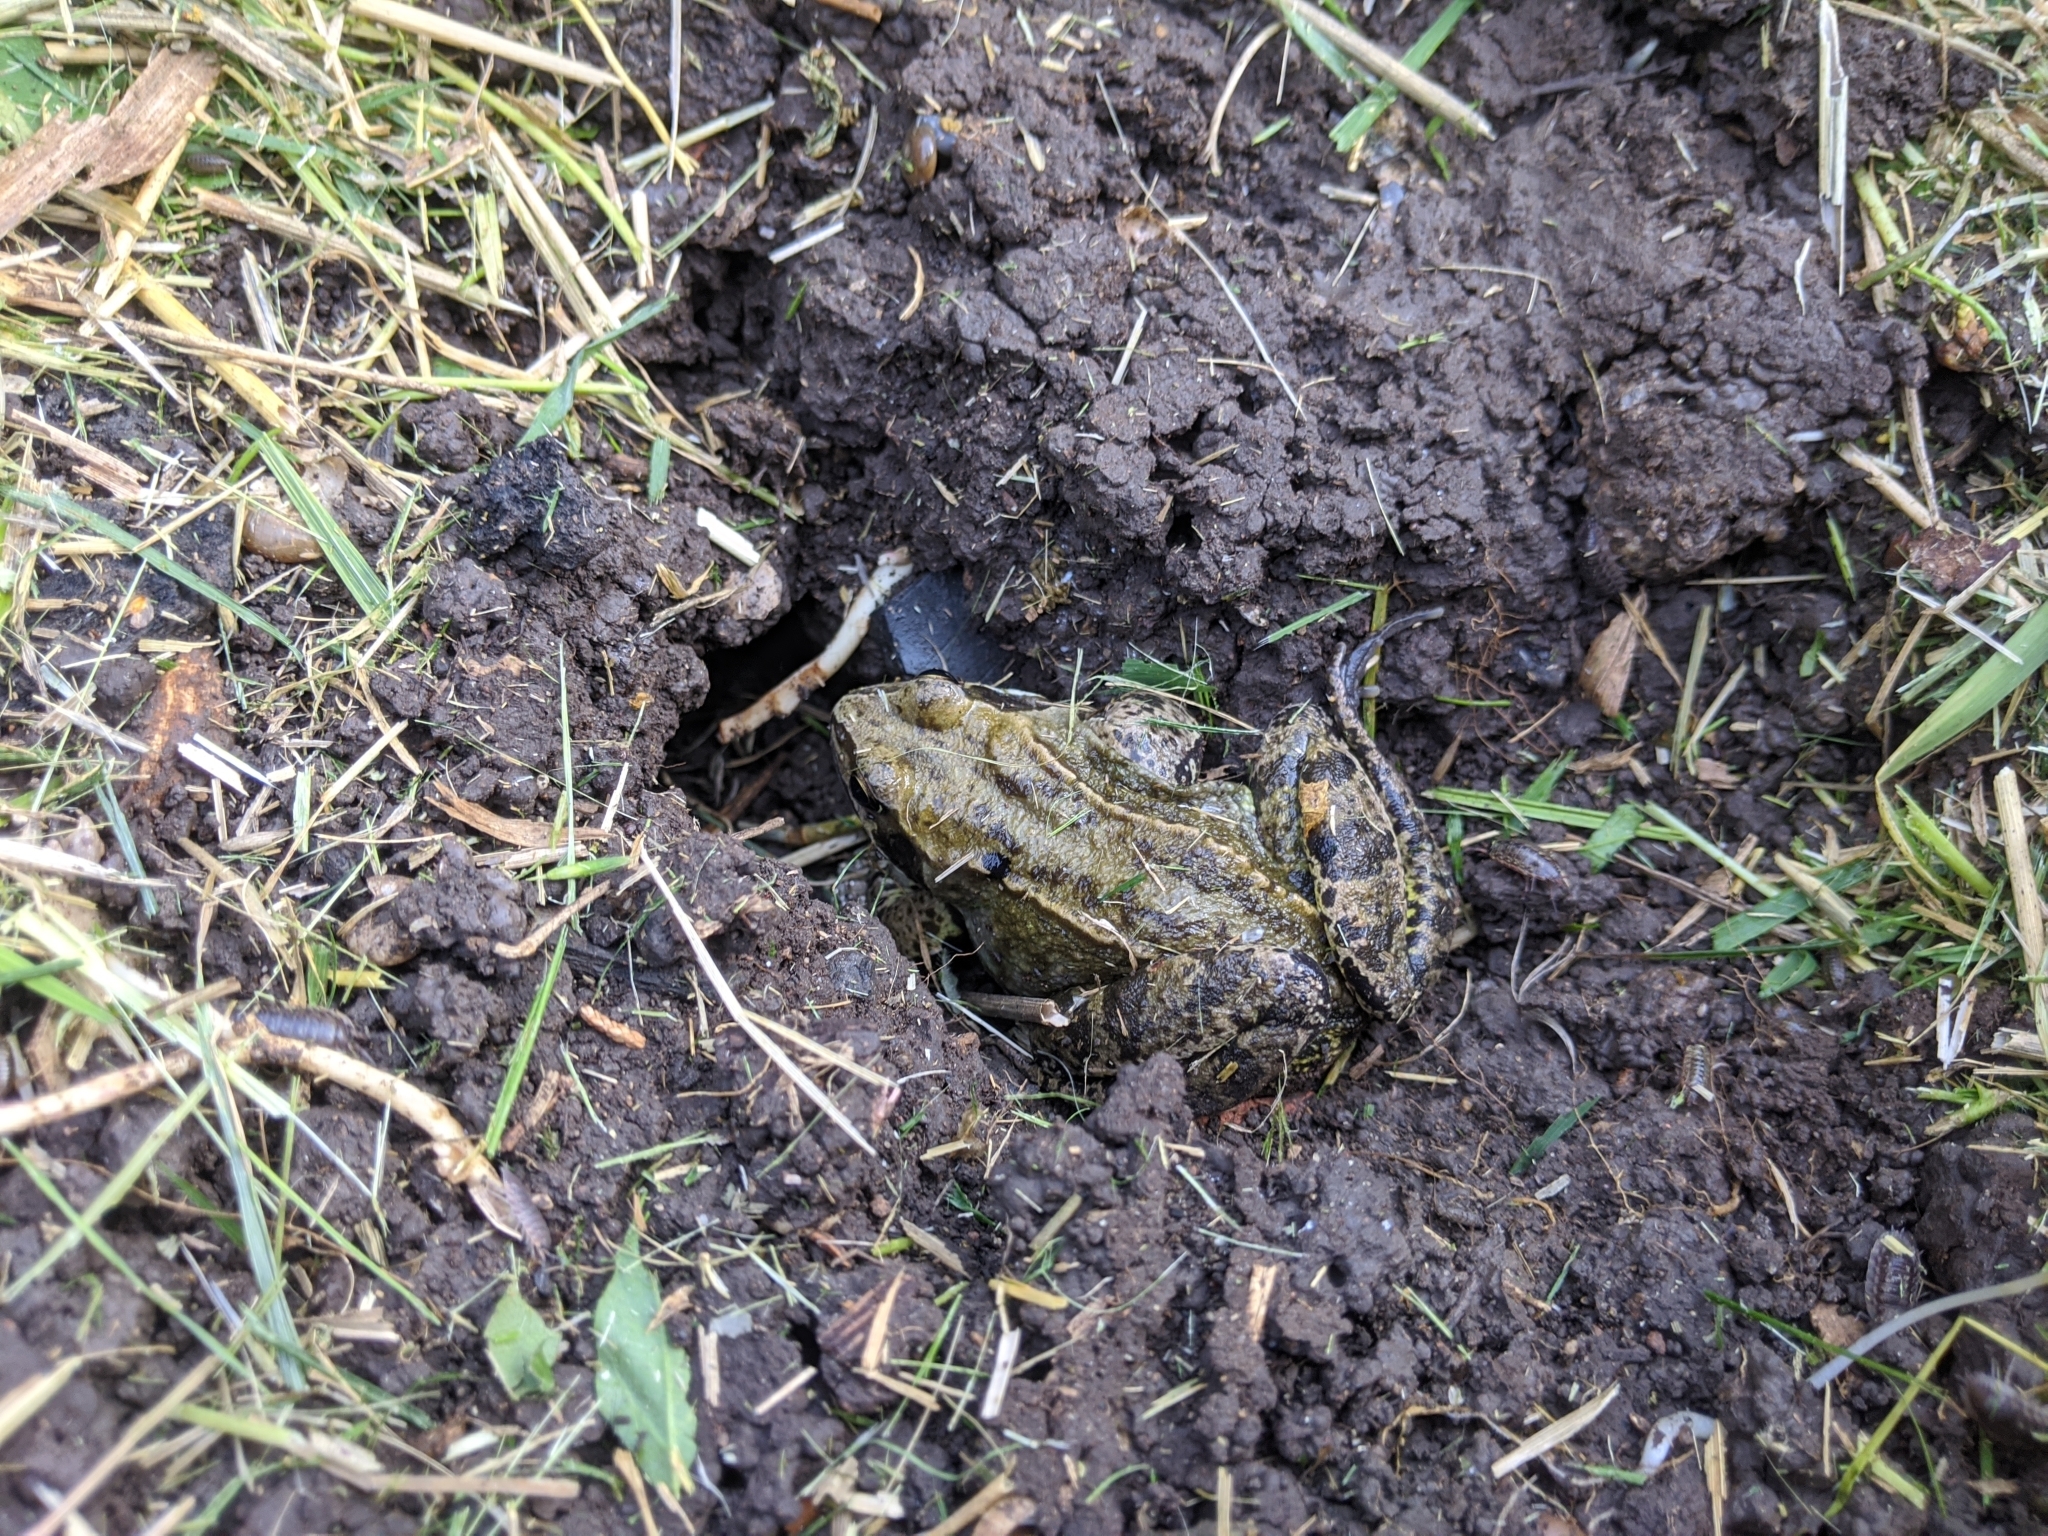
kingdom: Animalia
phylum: Chordata
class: Amphibia
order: Anura
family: Ranidae
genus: Rana
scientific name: Rana temporaria
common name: Common frog
